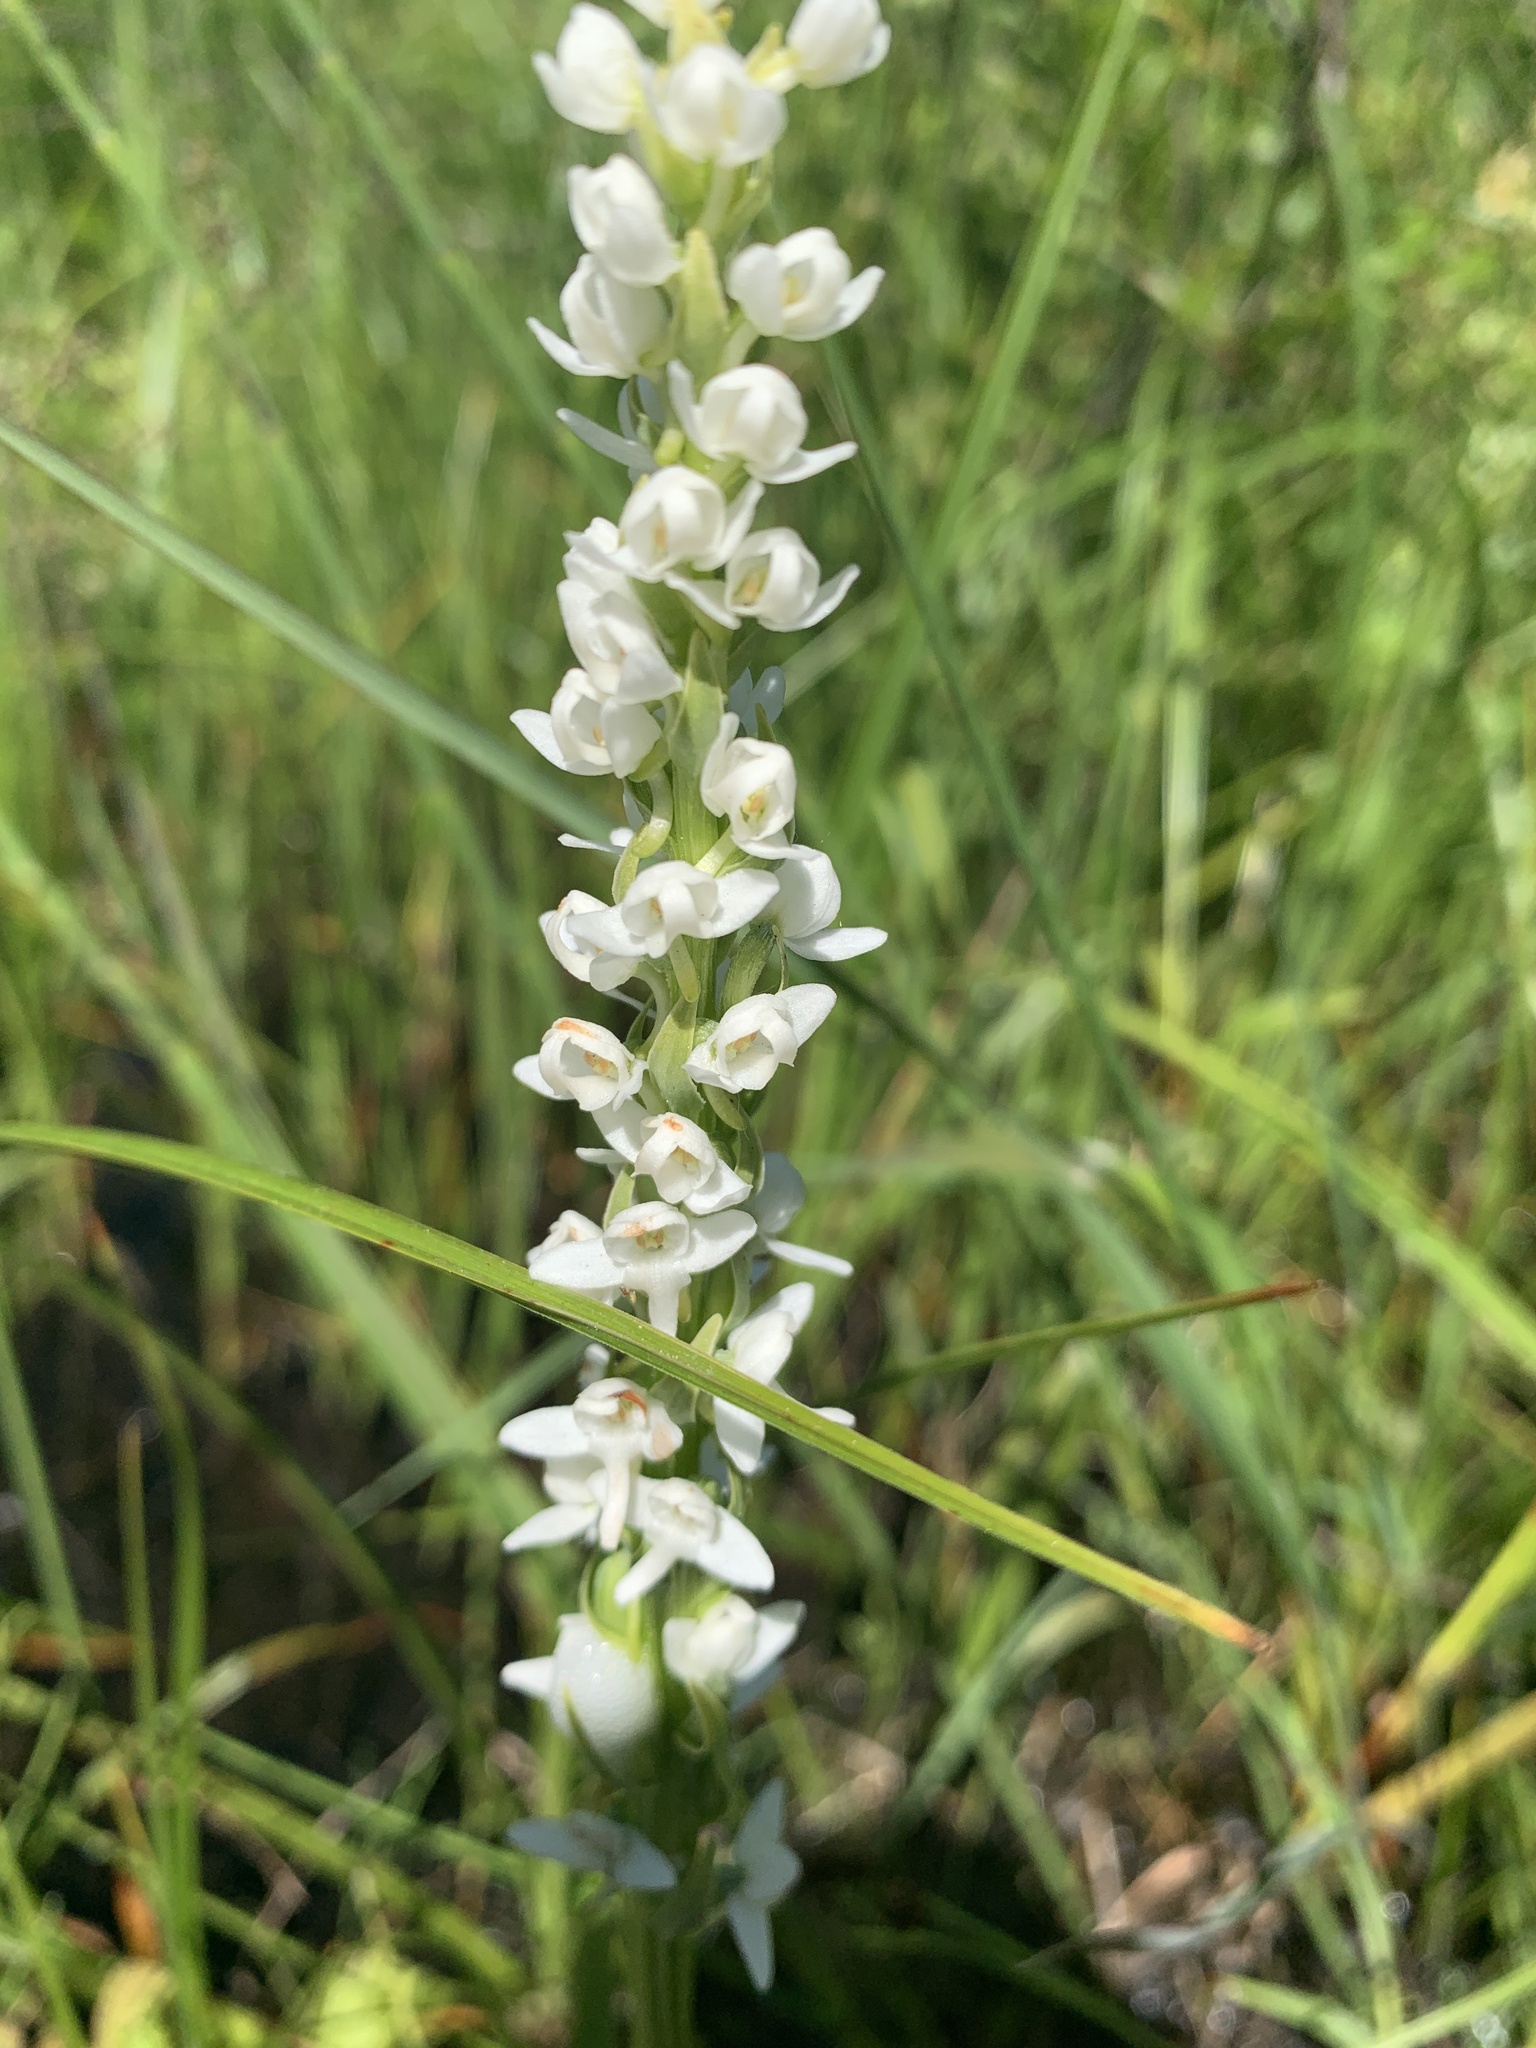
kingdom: Plantae
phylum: Tracheophyta
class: Liliopsida
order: Asparagales
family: Orchidaceae
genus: Platanthera
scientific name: Platanthera dilatata
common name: Bog candles
